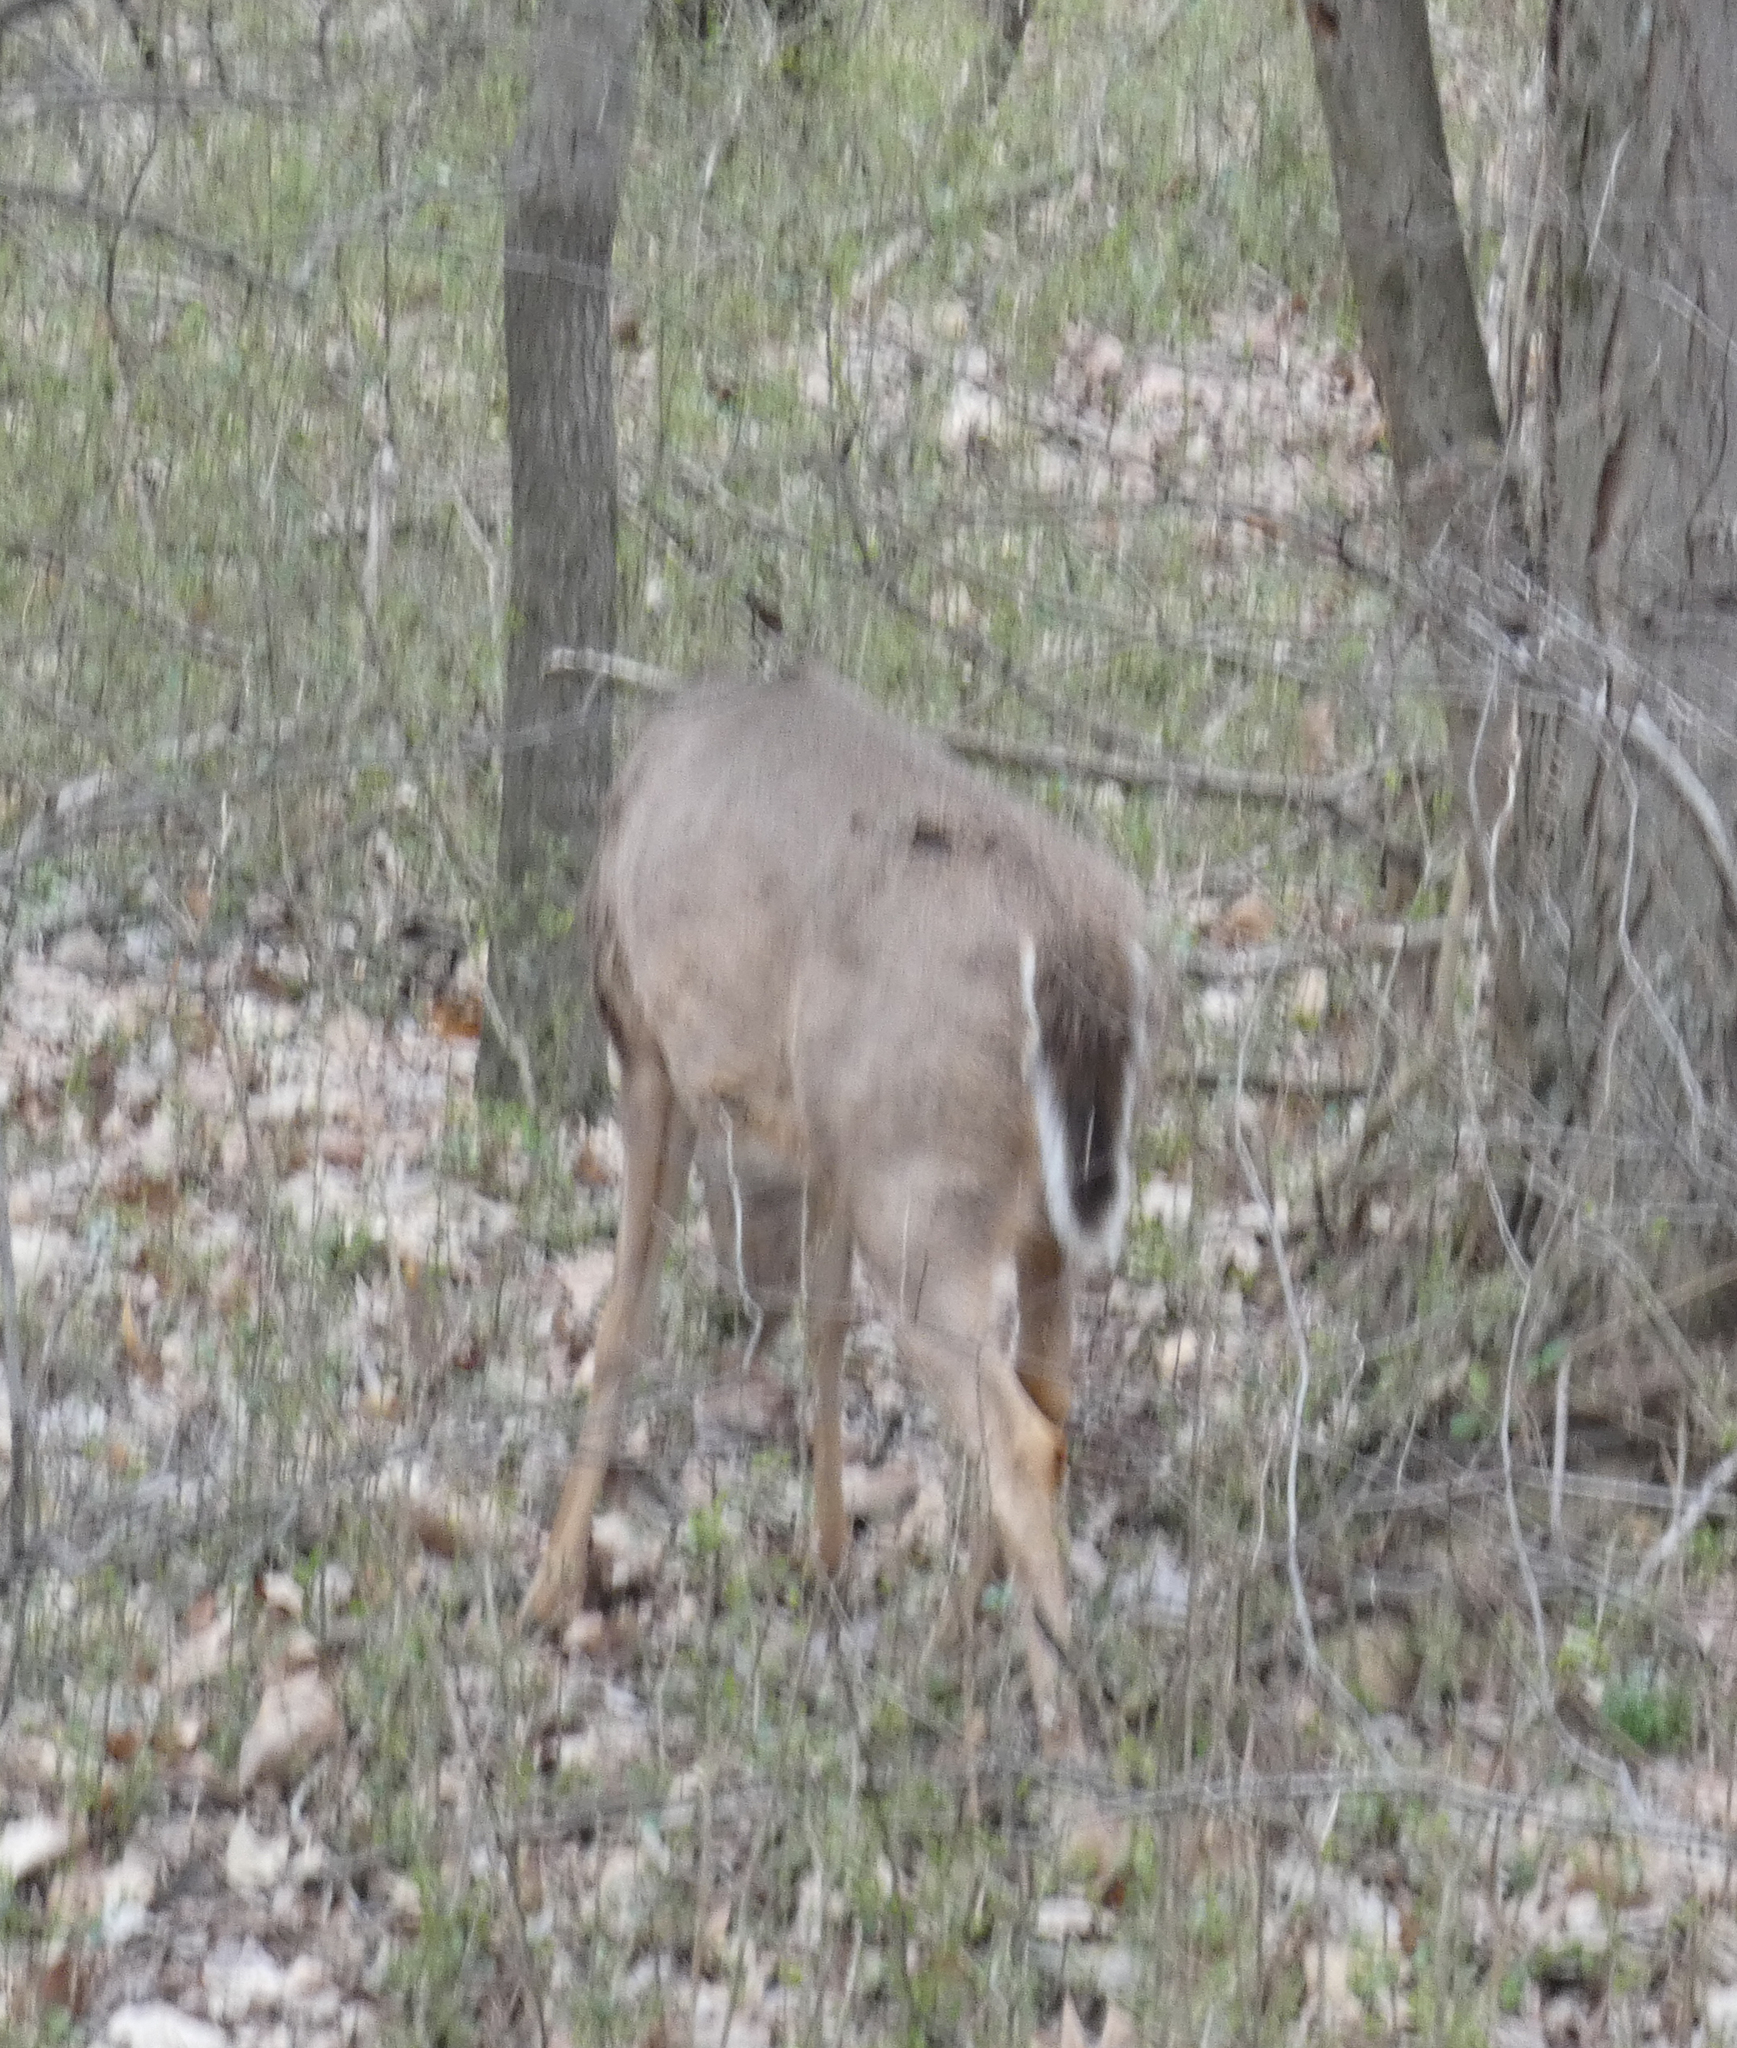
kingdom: Animalia
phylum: Chordata
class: Mammalia
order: Artiodactyla
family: Cervidae
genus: Odocoileus
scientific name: Odocoileus virginianus
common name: White-tailed deer
